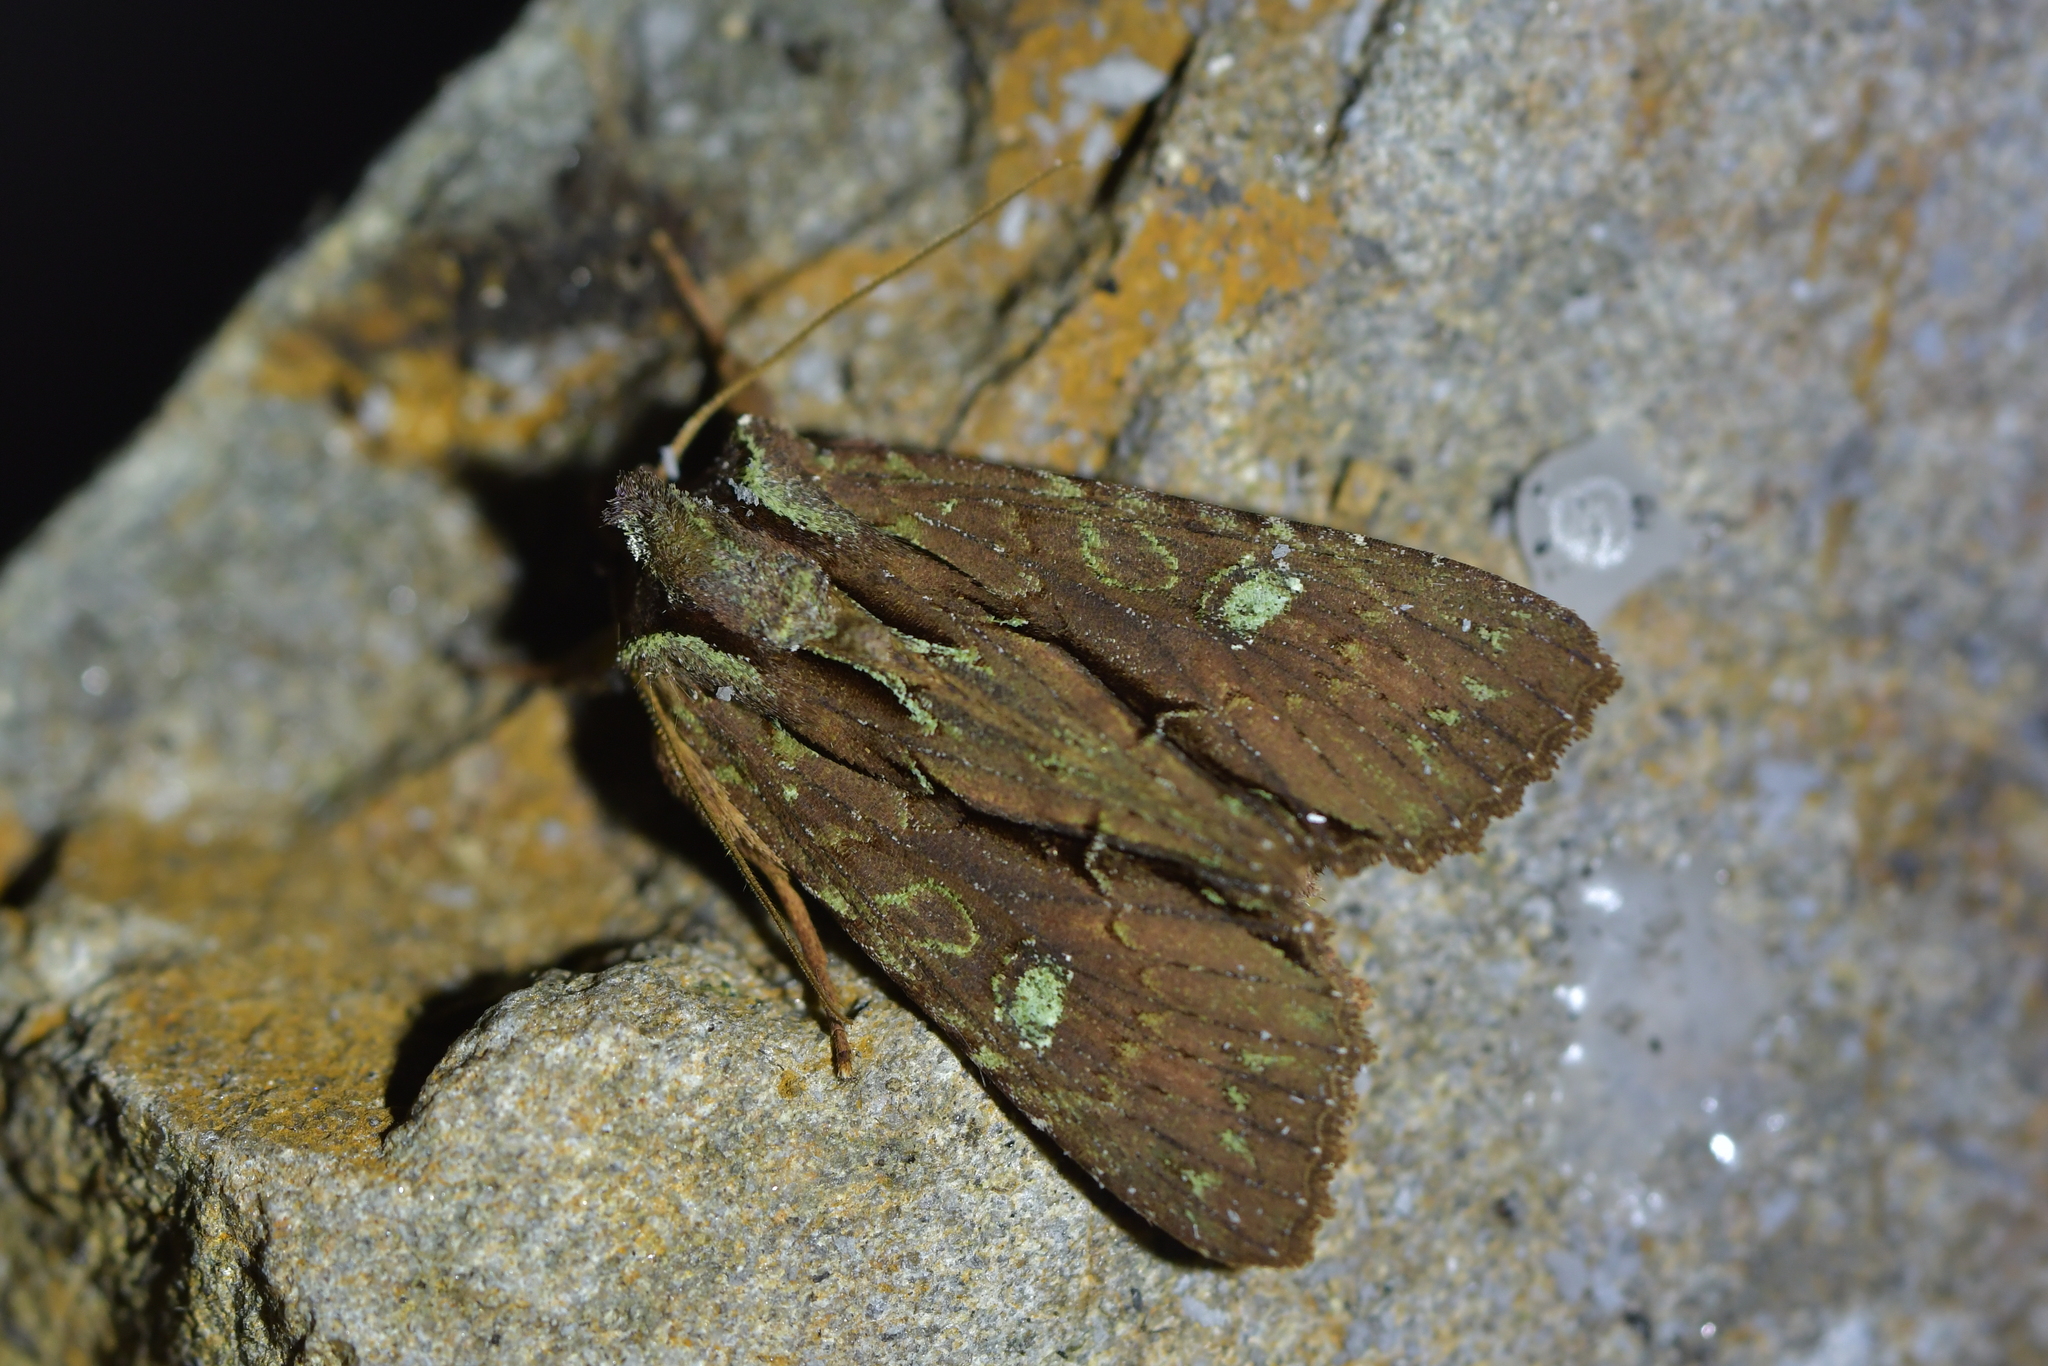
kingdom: Animalia
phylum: Arthropoda
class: Insecta
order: Lepidoptera
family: Noctuidae
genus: Meterana
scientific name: Meterana diatmeta
